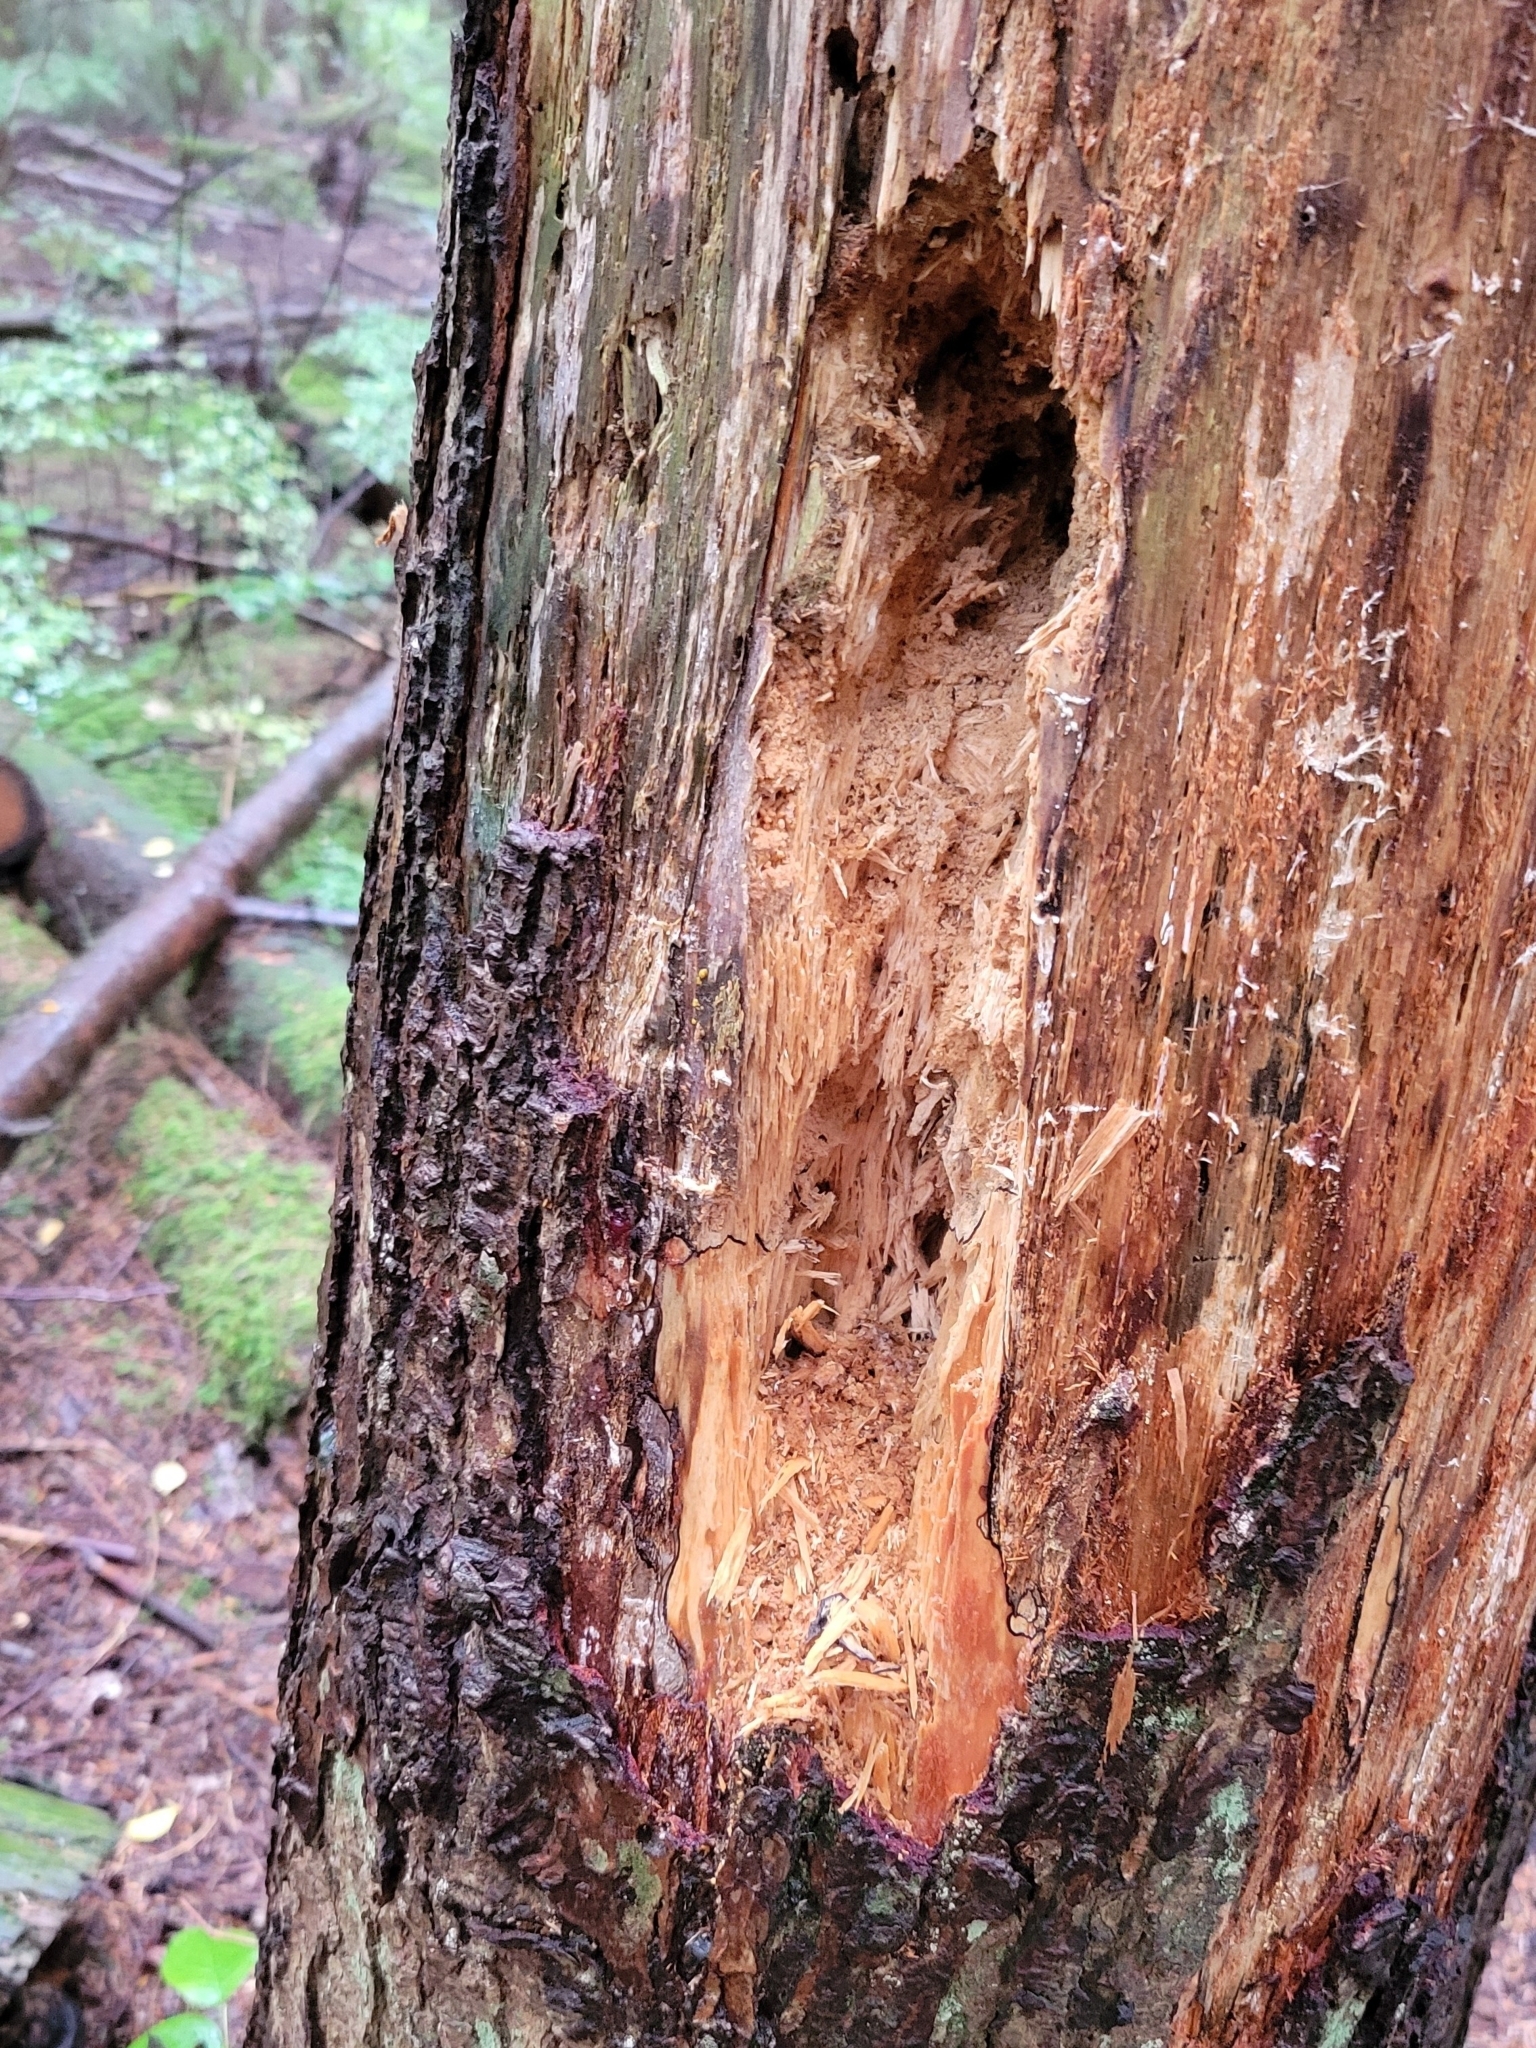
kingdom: Animalia
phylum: Chordata
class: Aves
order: Piciformes
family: Picidae
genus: Dryocopus
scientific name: Dryocopus pileatus
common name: Pileated woodpecker
